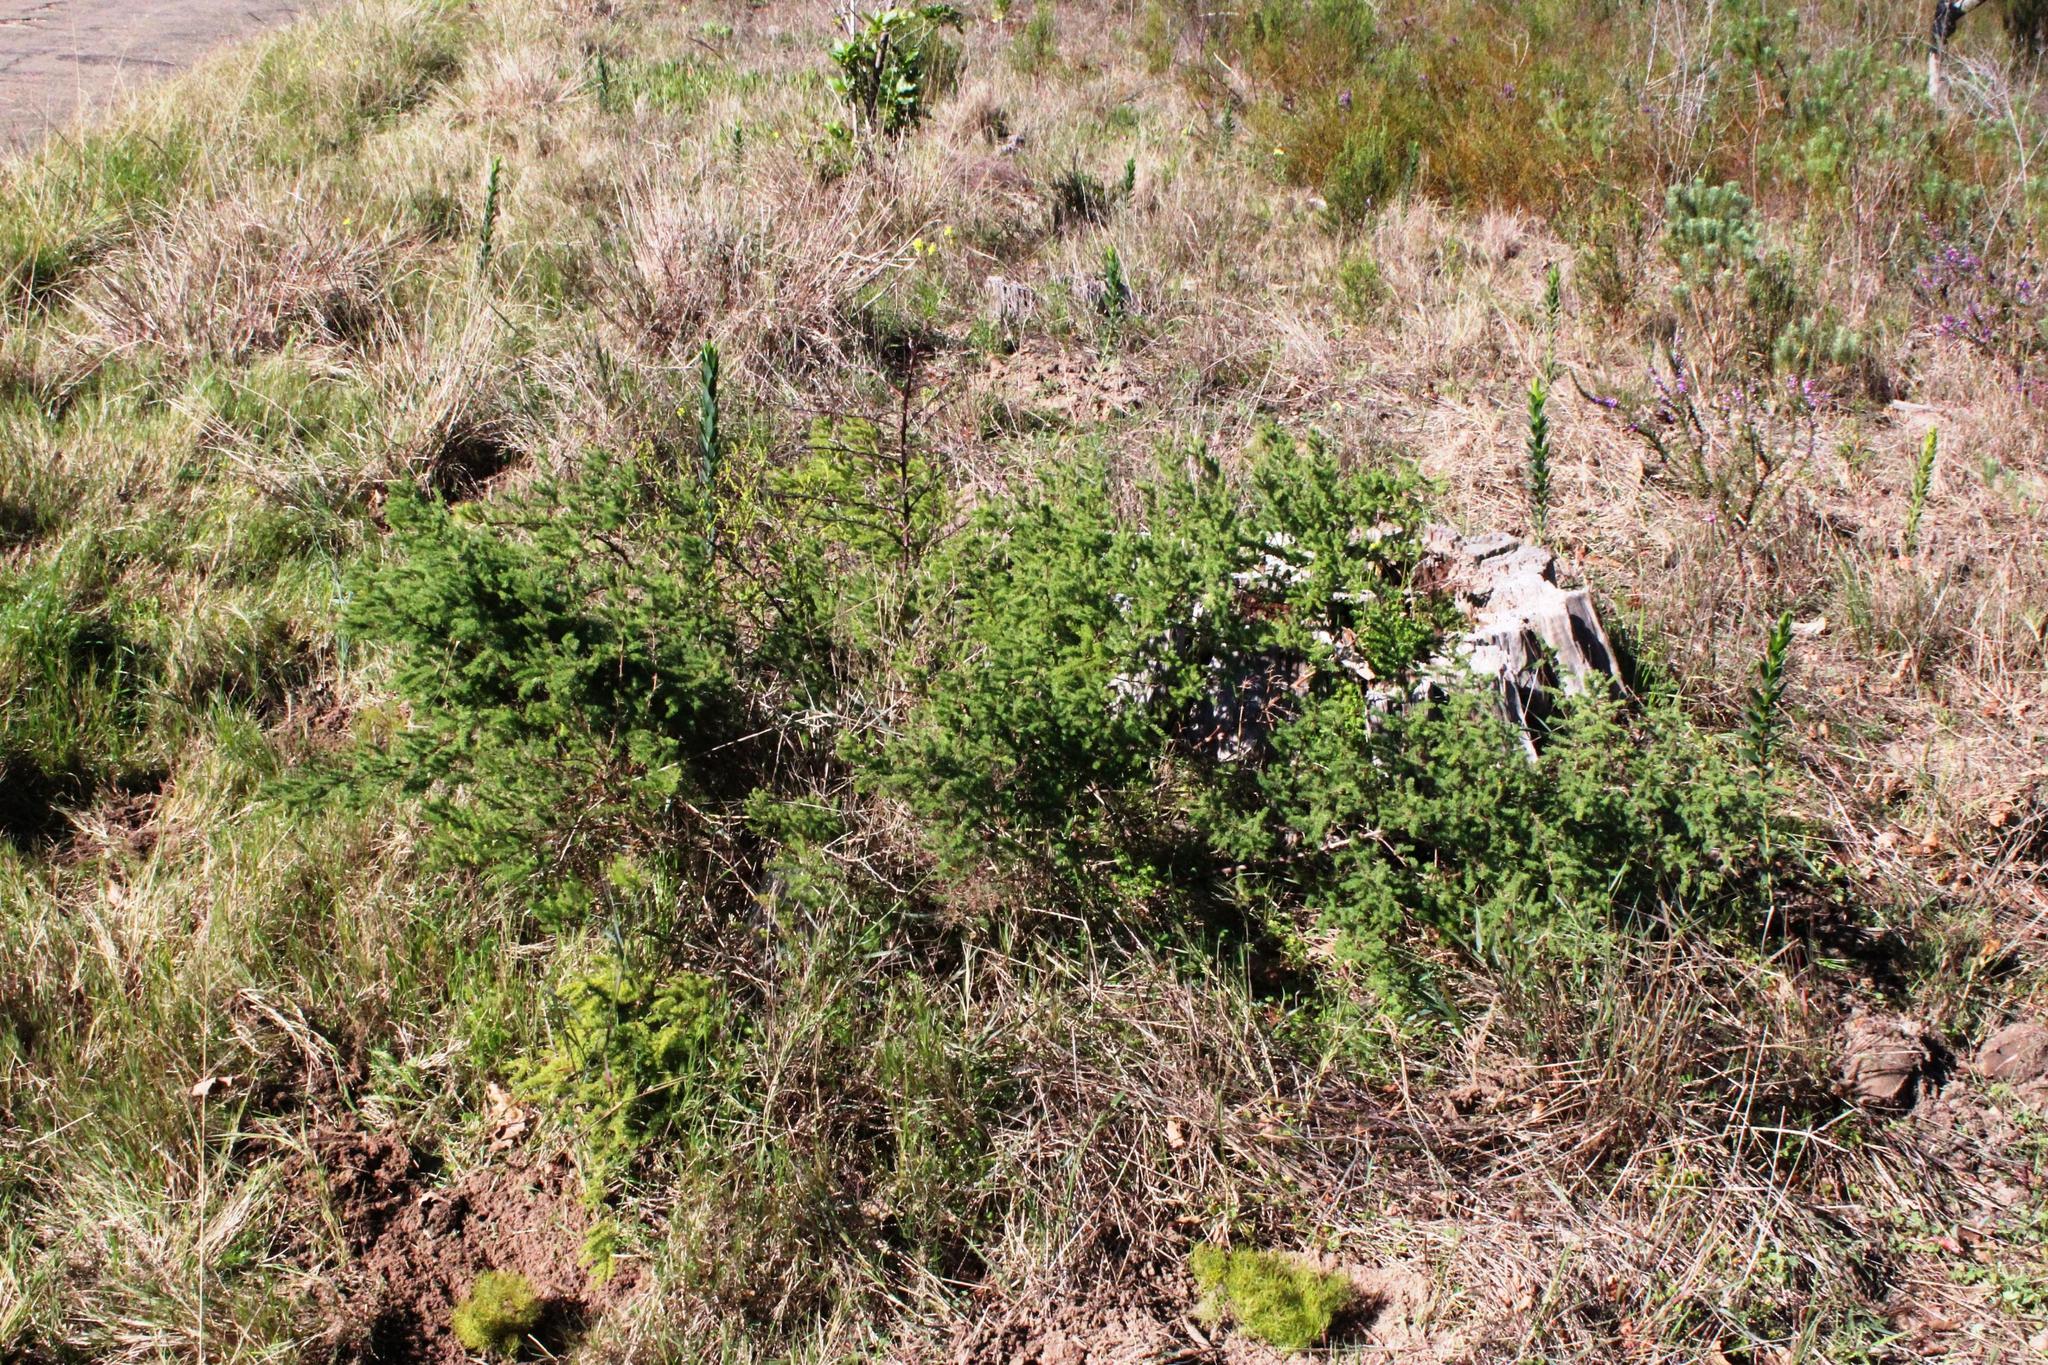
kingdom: Plantae
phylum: Tracheophyta
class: Liliopsida
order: Asparagales
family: Asparagaceae
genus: Asparagus
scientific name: Asparagus rubicundus
